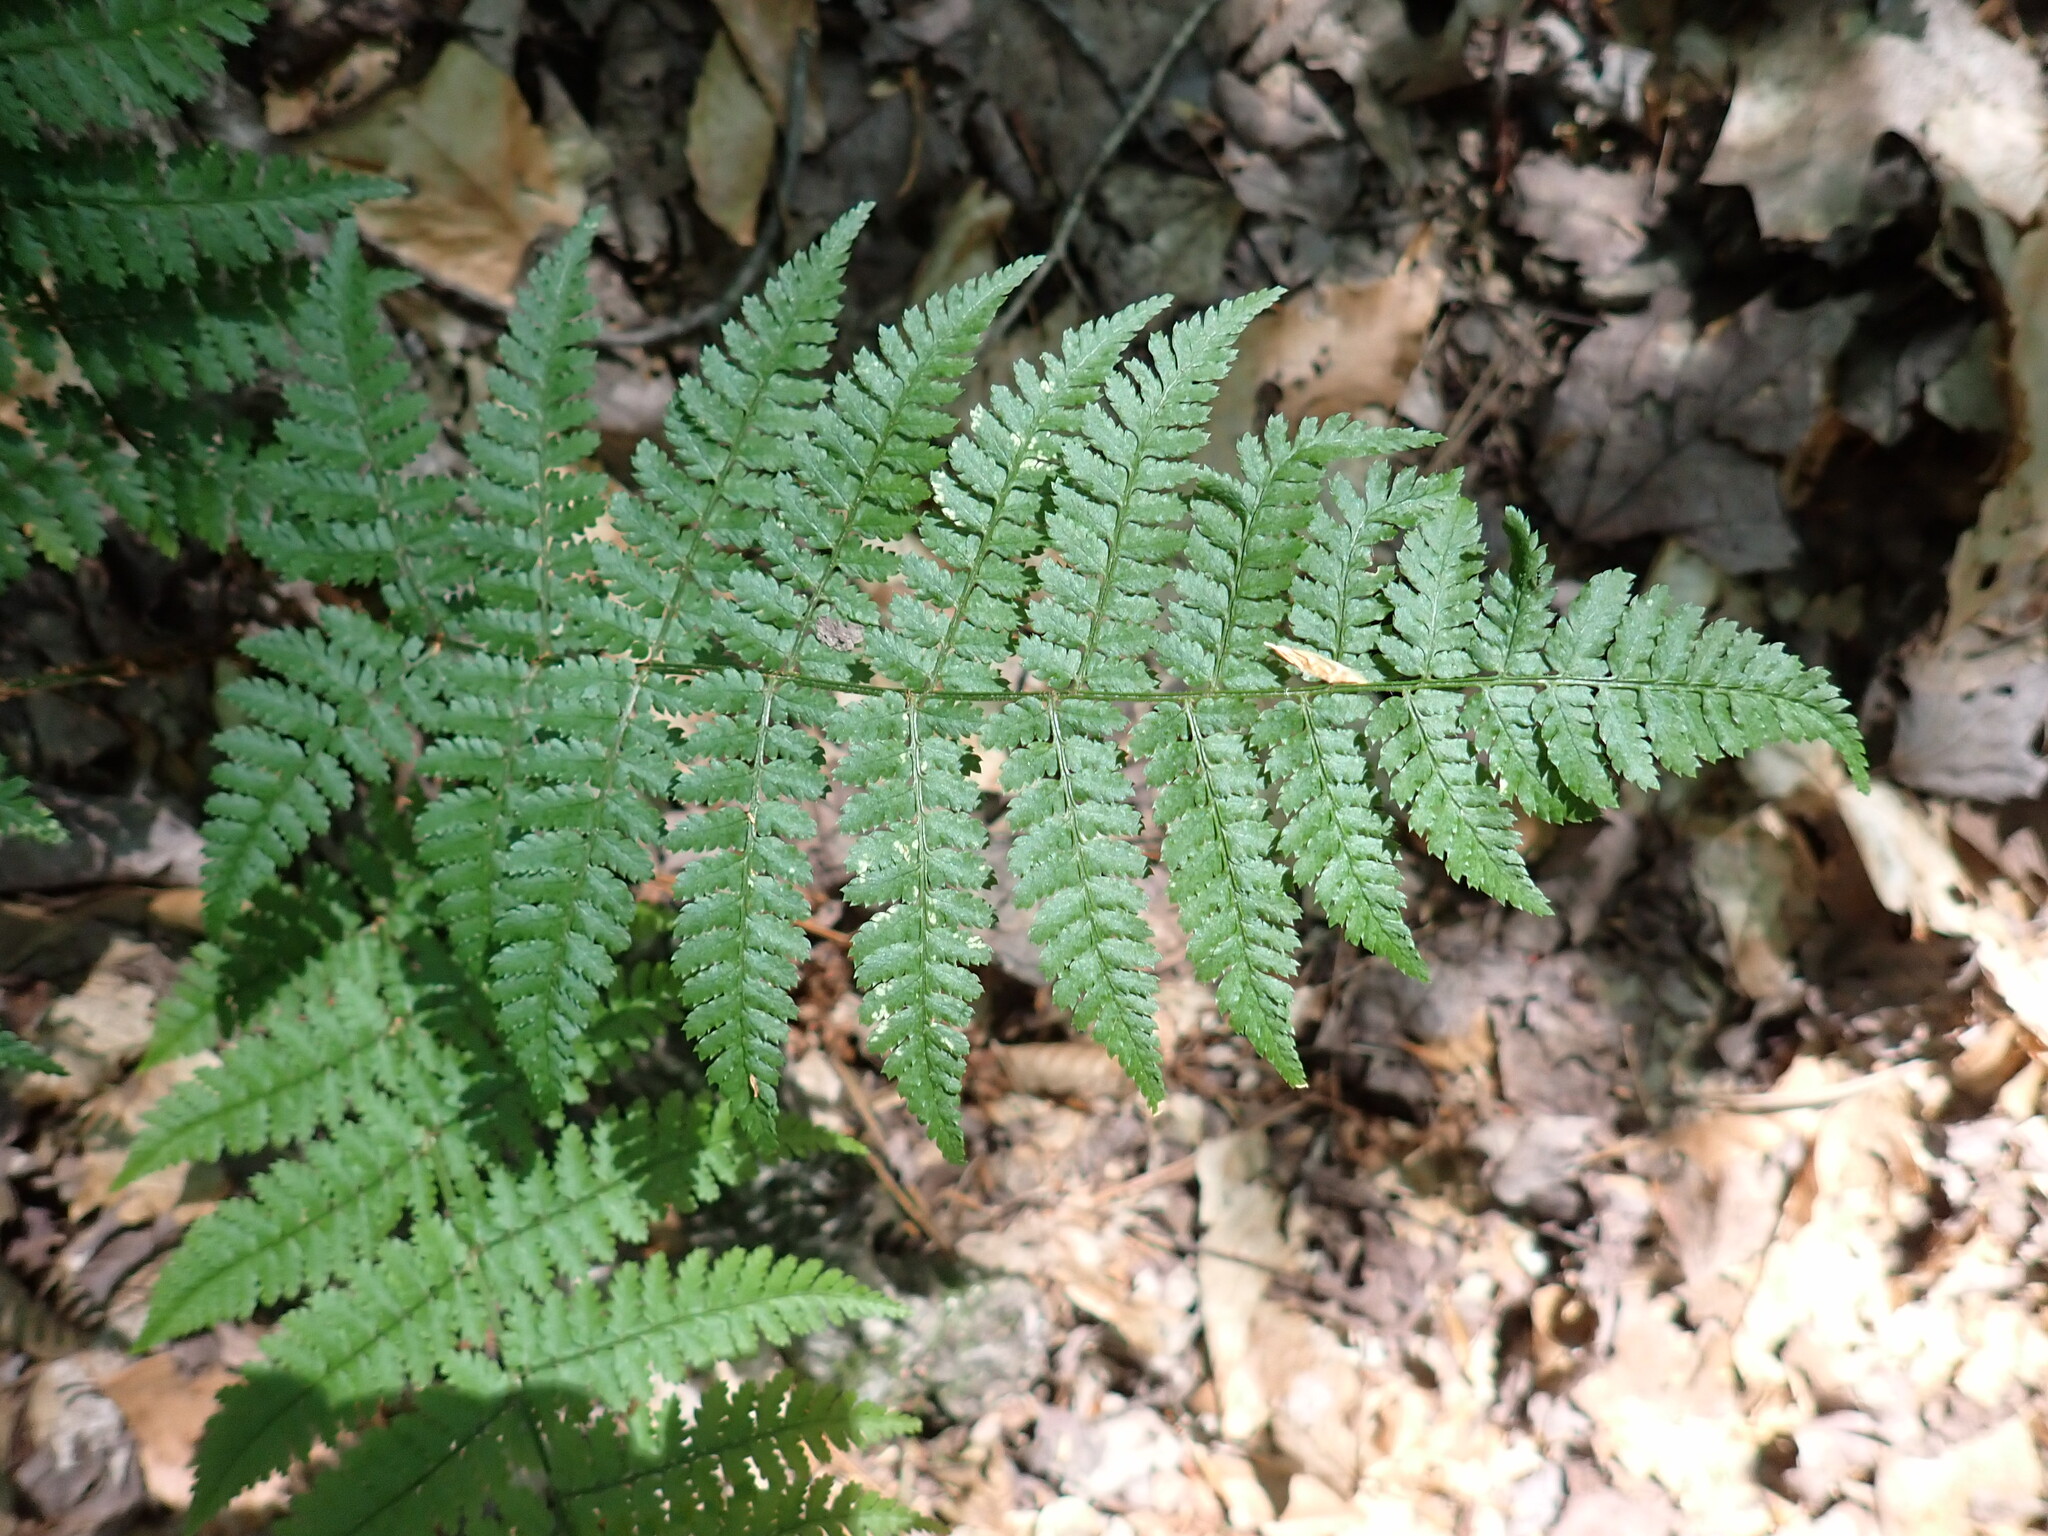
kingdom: Plantae
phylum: Tracheophyta
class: Polypodiopsida
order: Polypodiales
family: Dryopteridaceae
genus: Dryopteris
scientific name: Dryopteris intermedia
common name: Evergreen wood fern
